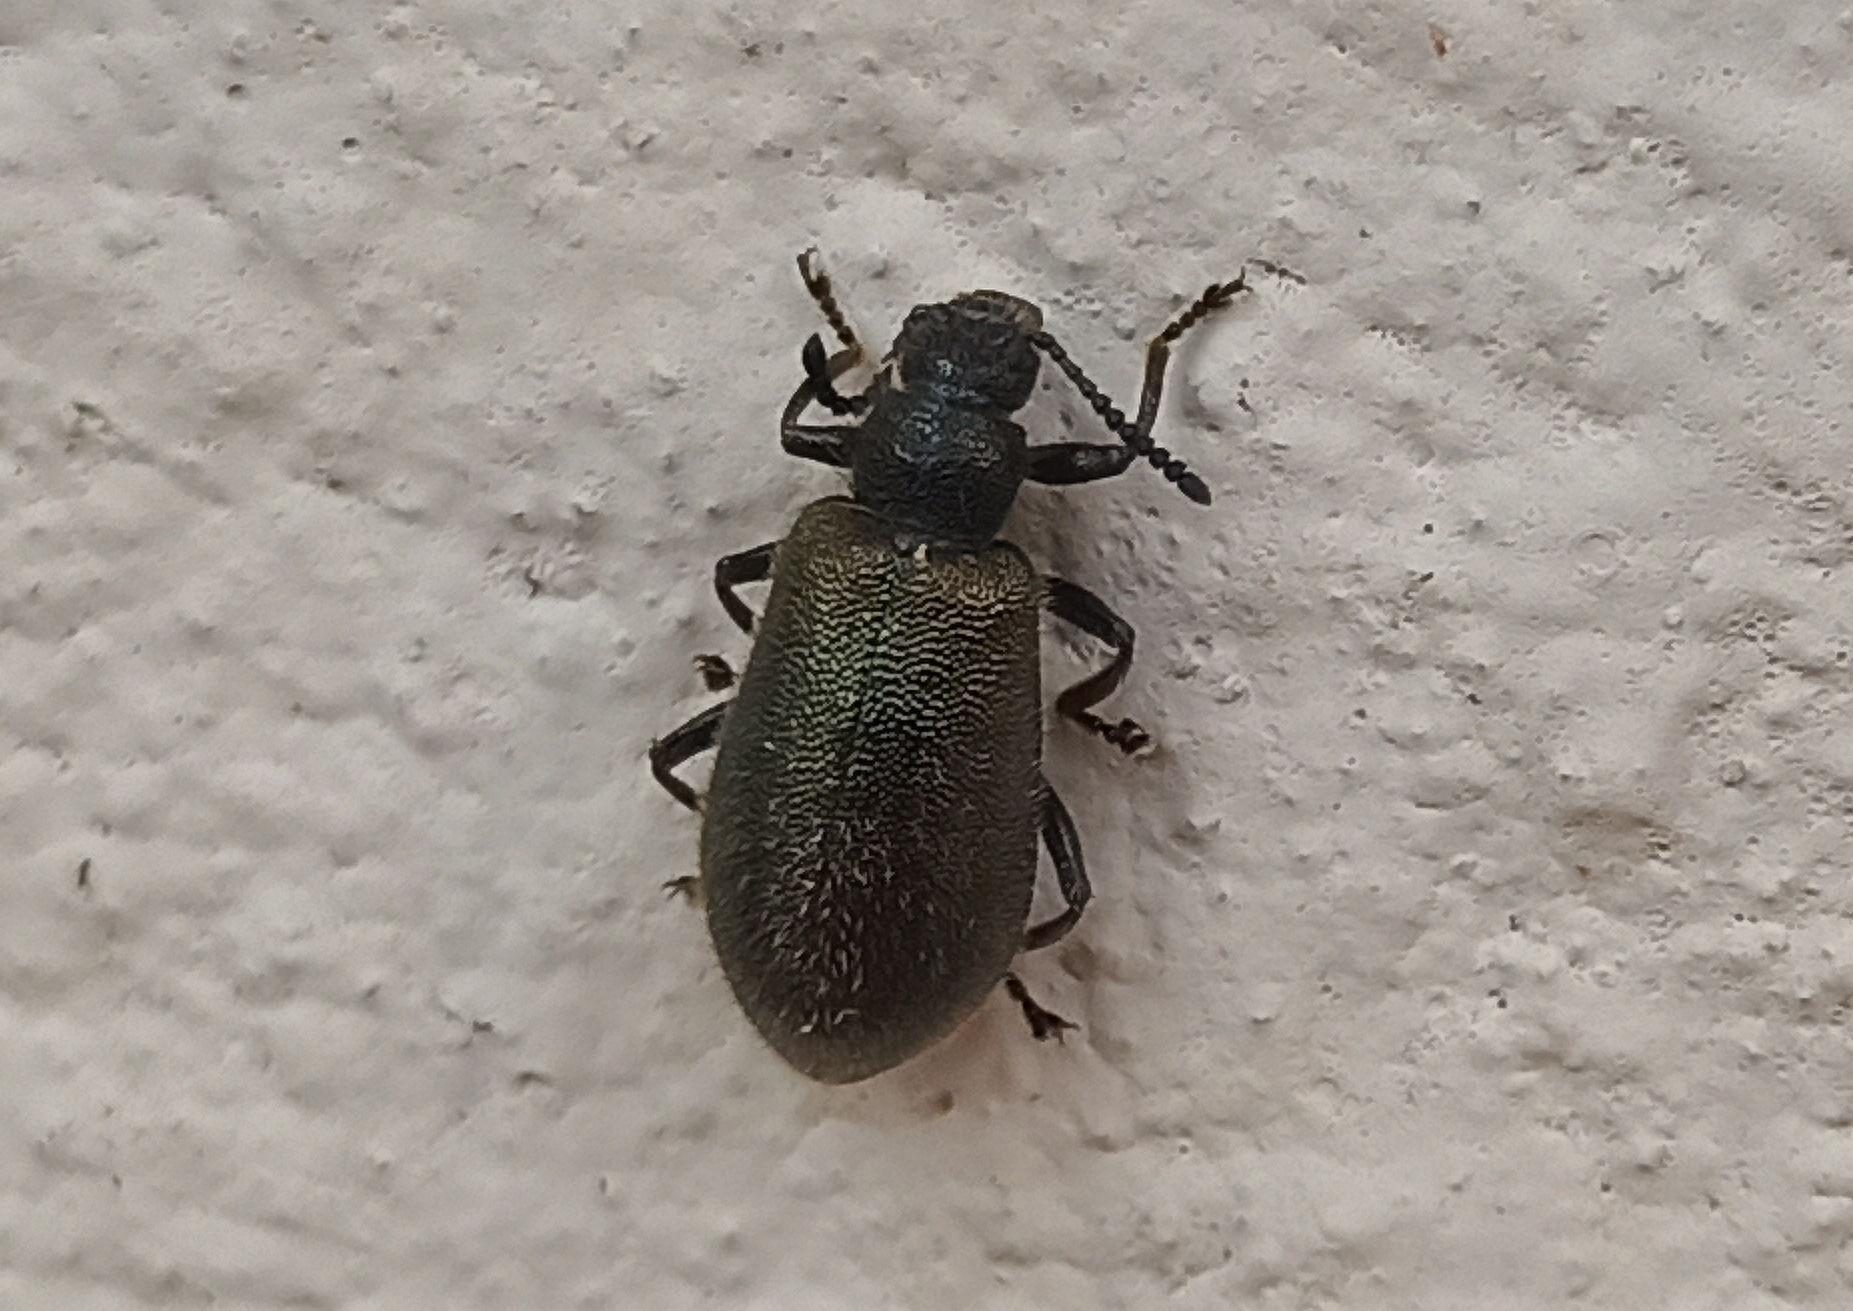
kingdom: Animalia
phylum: Arthropoda
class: Insecta
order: Coleoptera
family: Tenebrionidae
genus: Lagria
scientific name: Lagria villosa
